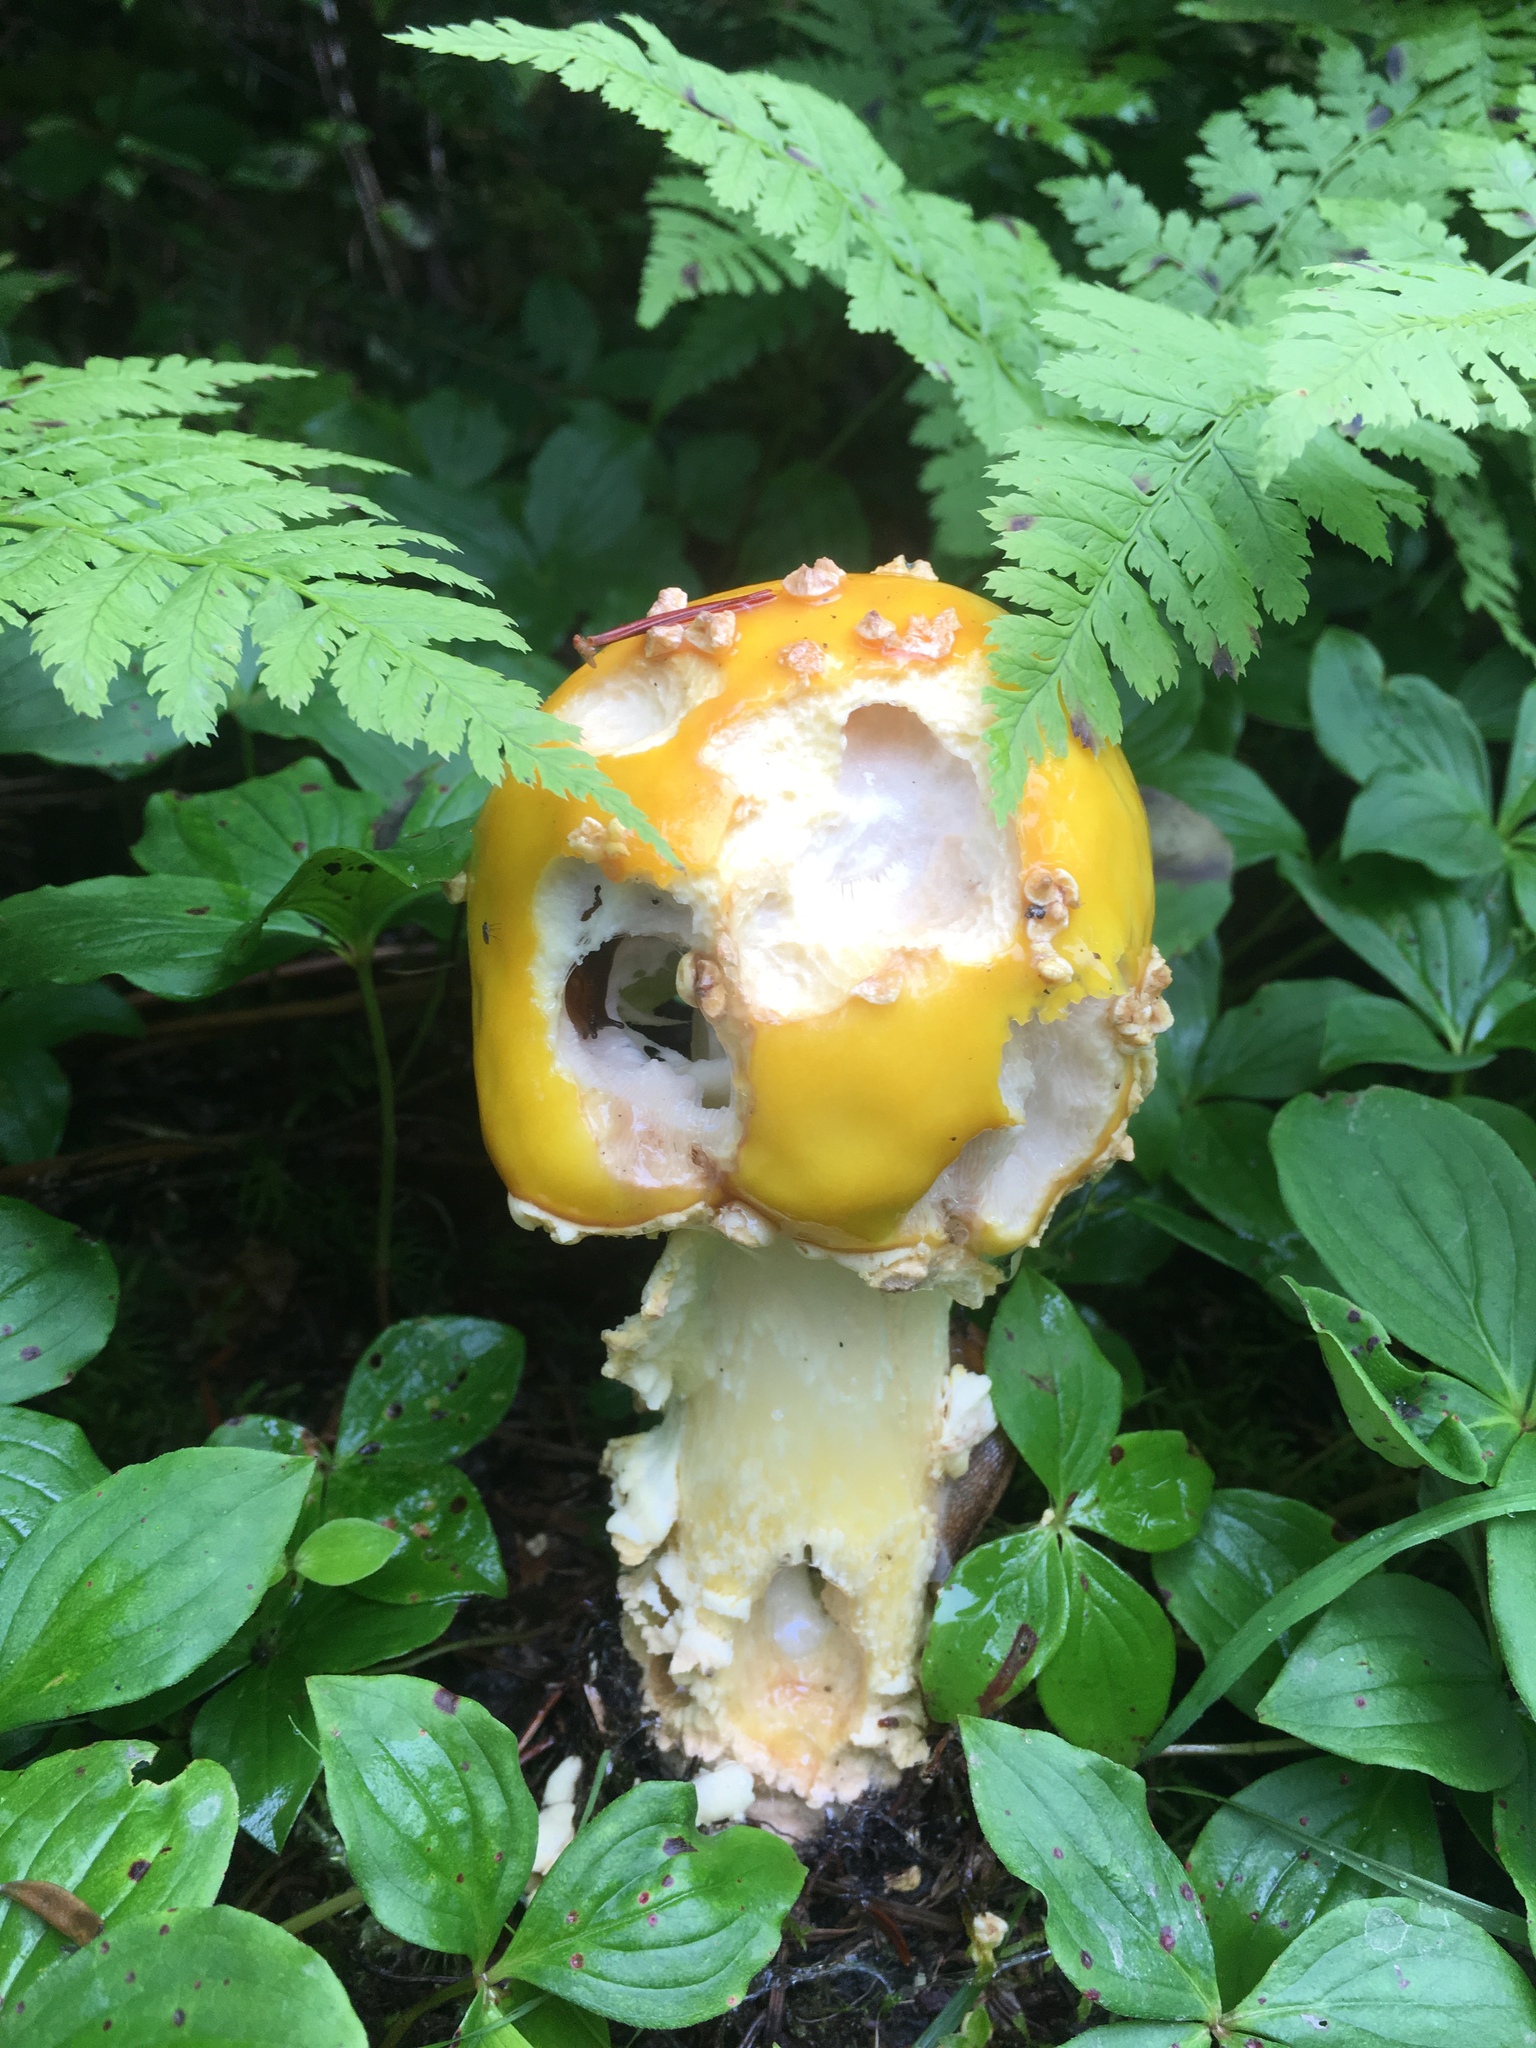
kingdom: Fungi
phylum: Basidiomycota
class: Agaricomycetes
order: Agaricales
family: Amanitaceae
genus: Amanita
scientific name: Amanita muscaria
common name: Fly agaric
